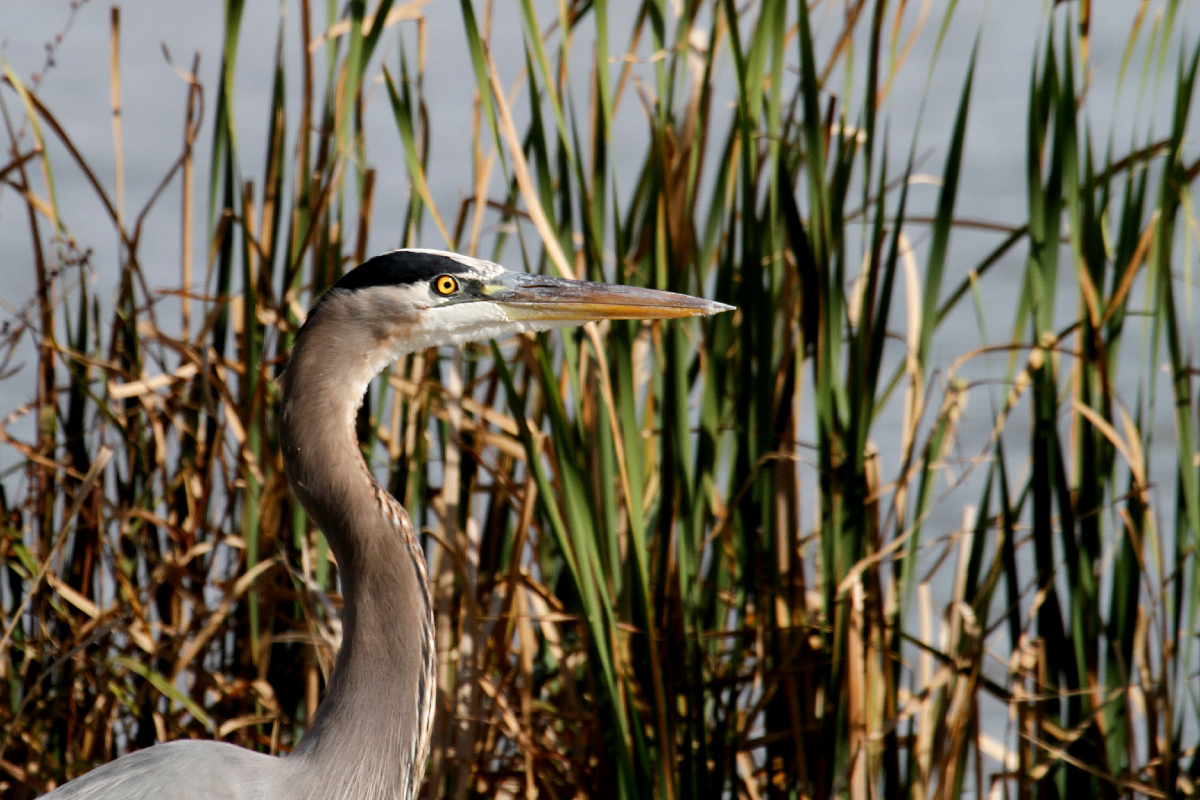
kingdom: Animalia
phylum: Chordata
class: Aves
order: Pelecaniformes
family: Ardeidae
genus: Ardea
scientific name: Ardea herodias
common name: Great blue heron
